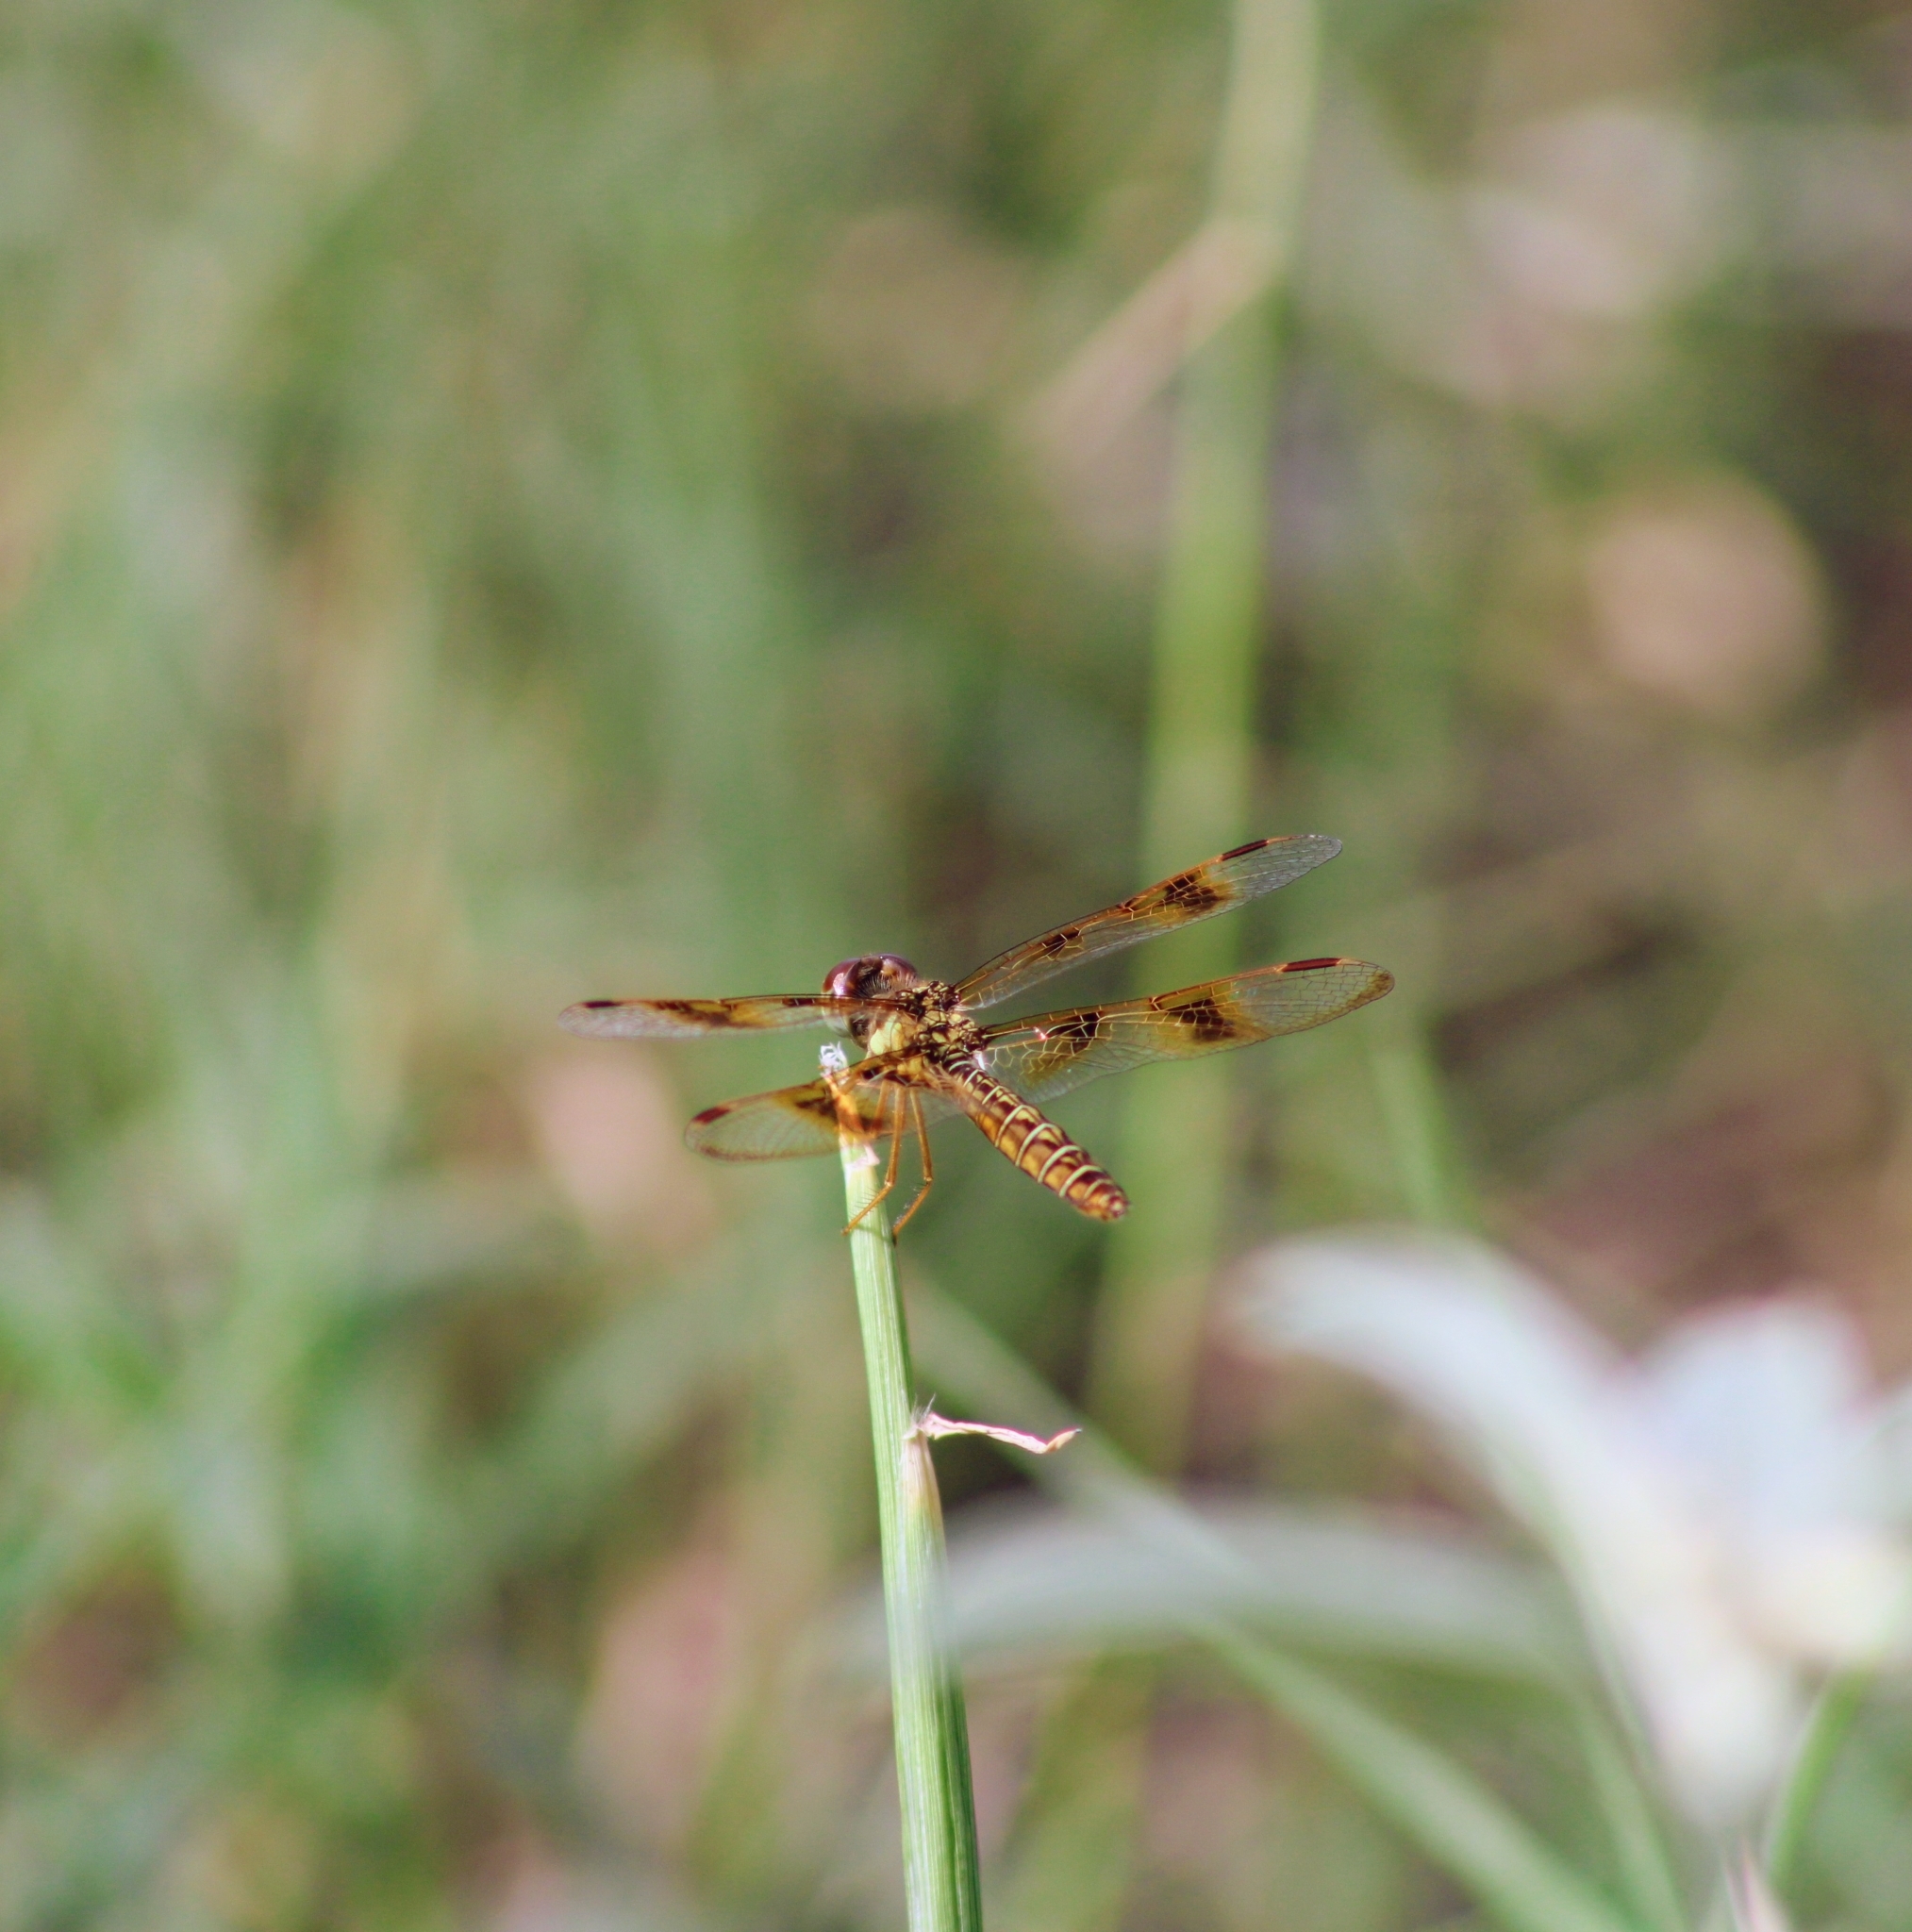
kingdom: Animalia
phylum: Arthropoda
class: Insecta
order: Odonata
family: Libellulidae
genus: Perithemis
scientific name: Perithemis tenera
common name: Eastern amberwing
